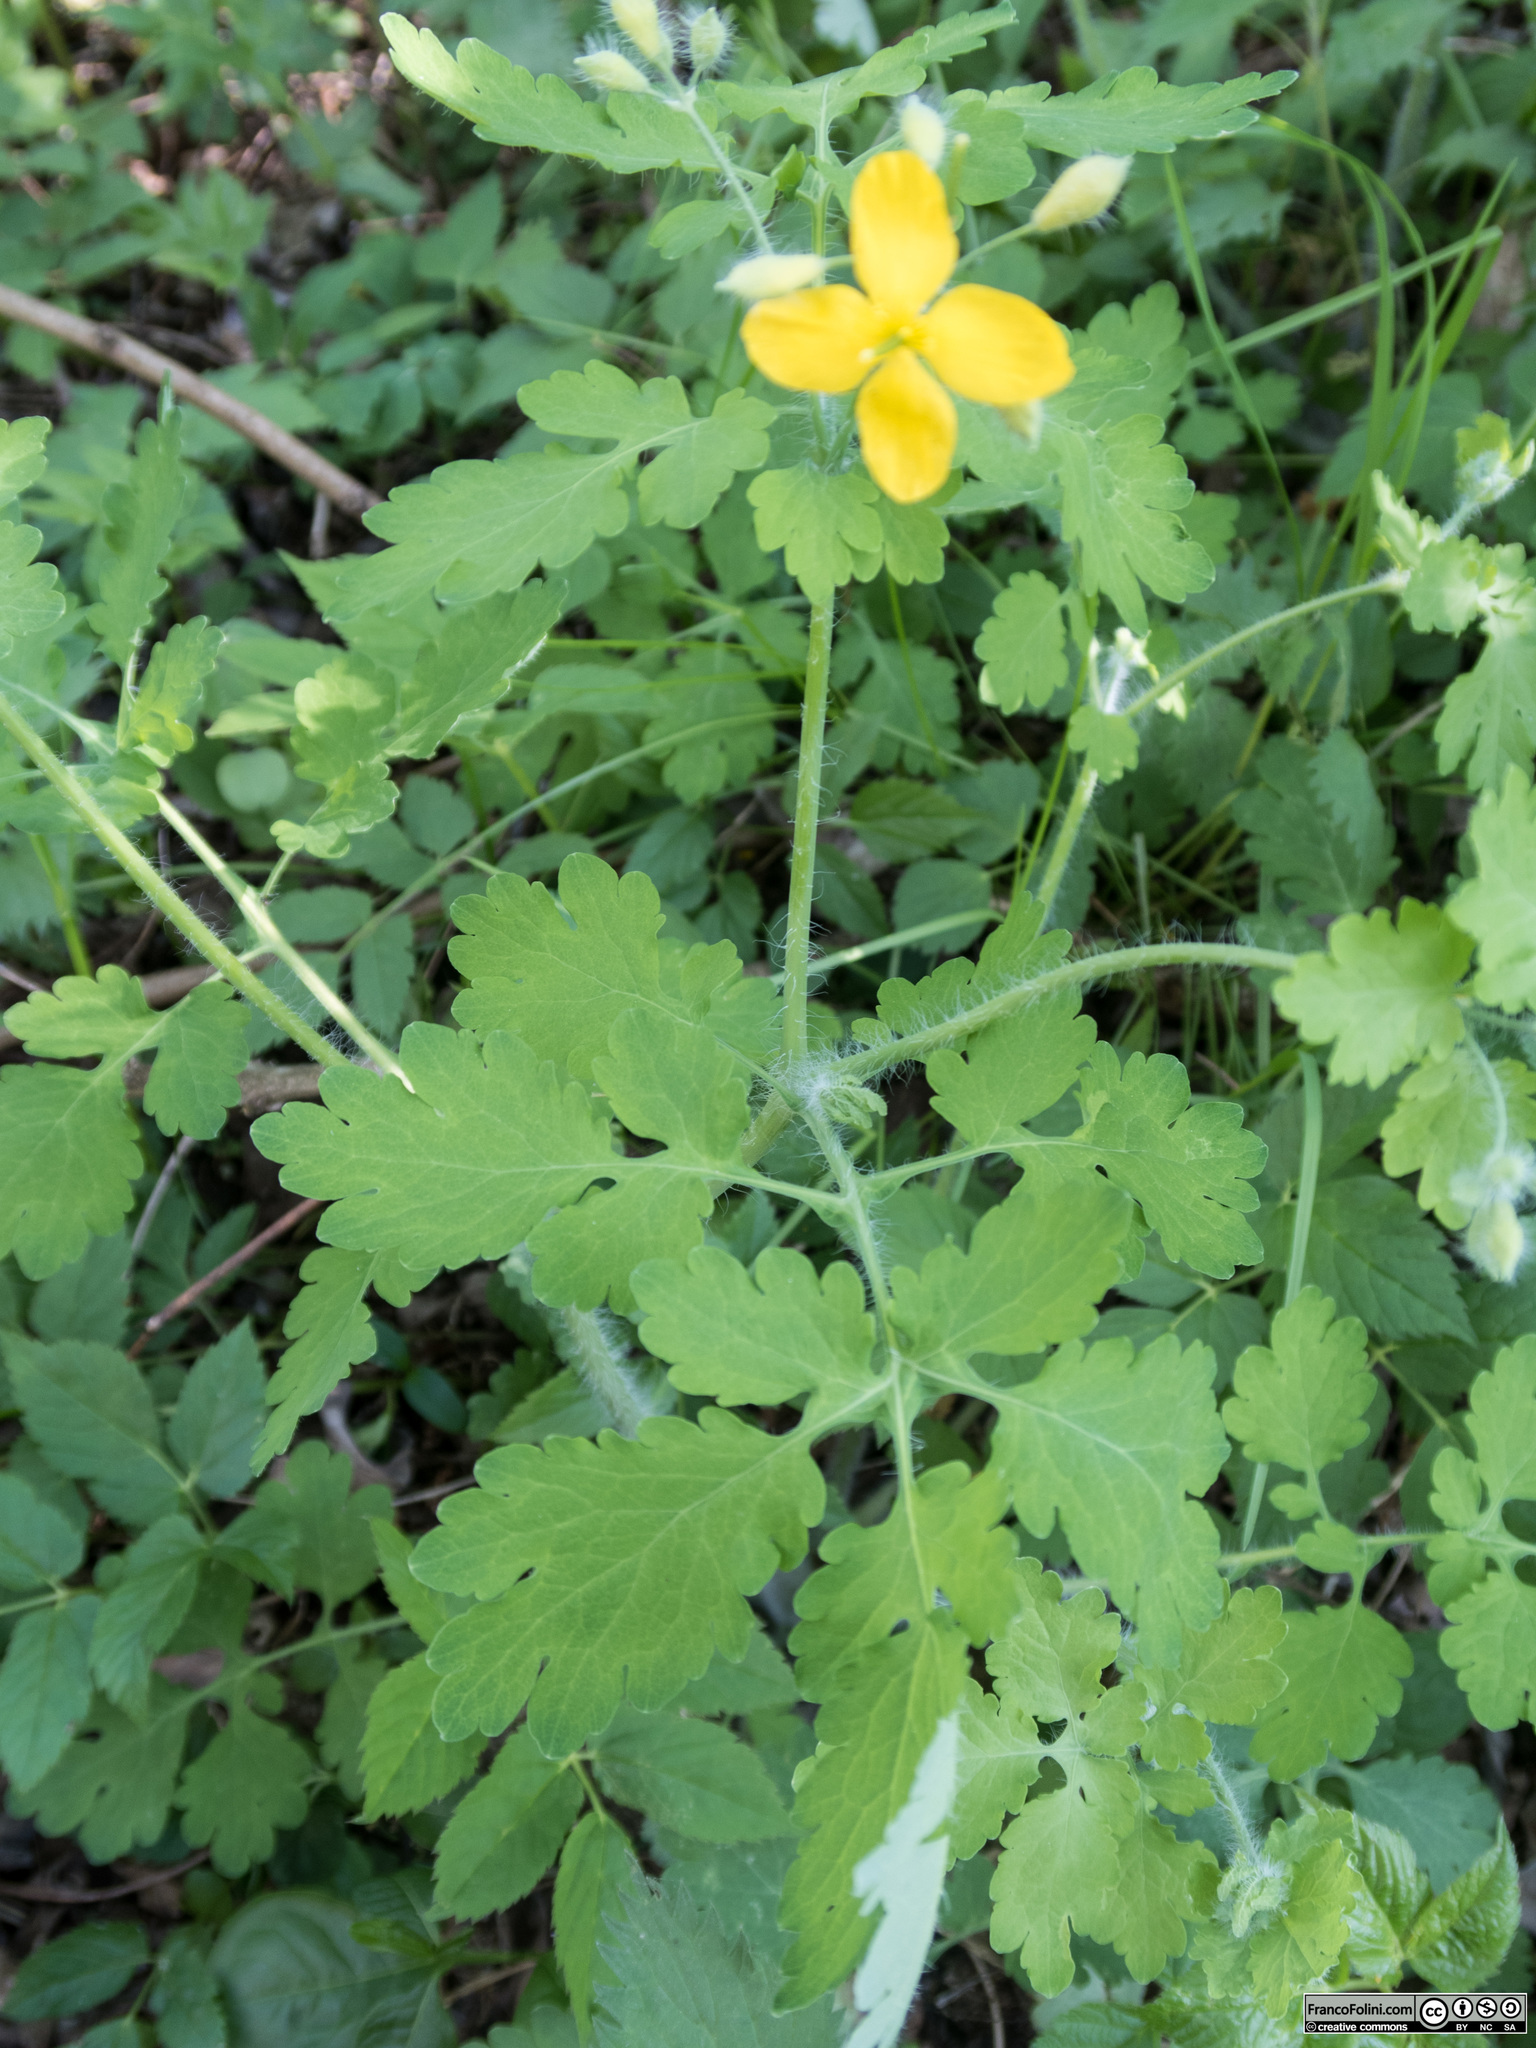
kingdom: Plantae
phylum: Tracheophyta
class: Magnoliopsida
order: Ranunculales
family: Papaveraceae
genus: Chelidonium
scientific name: Chelidonium majus
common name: Greater celandine
